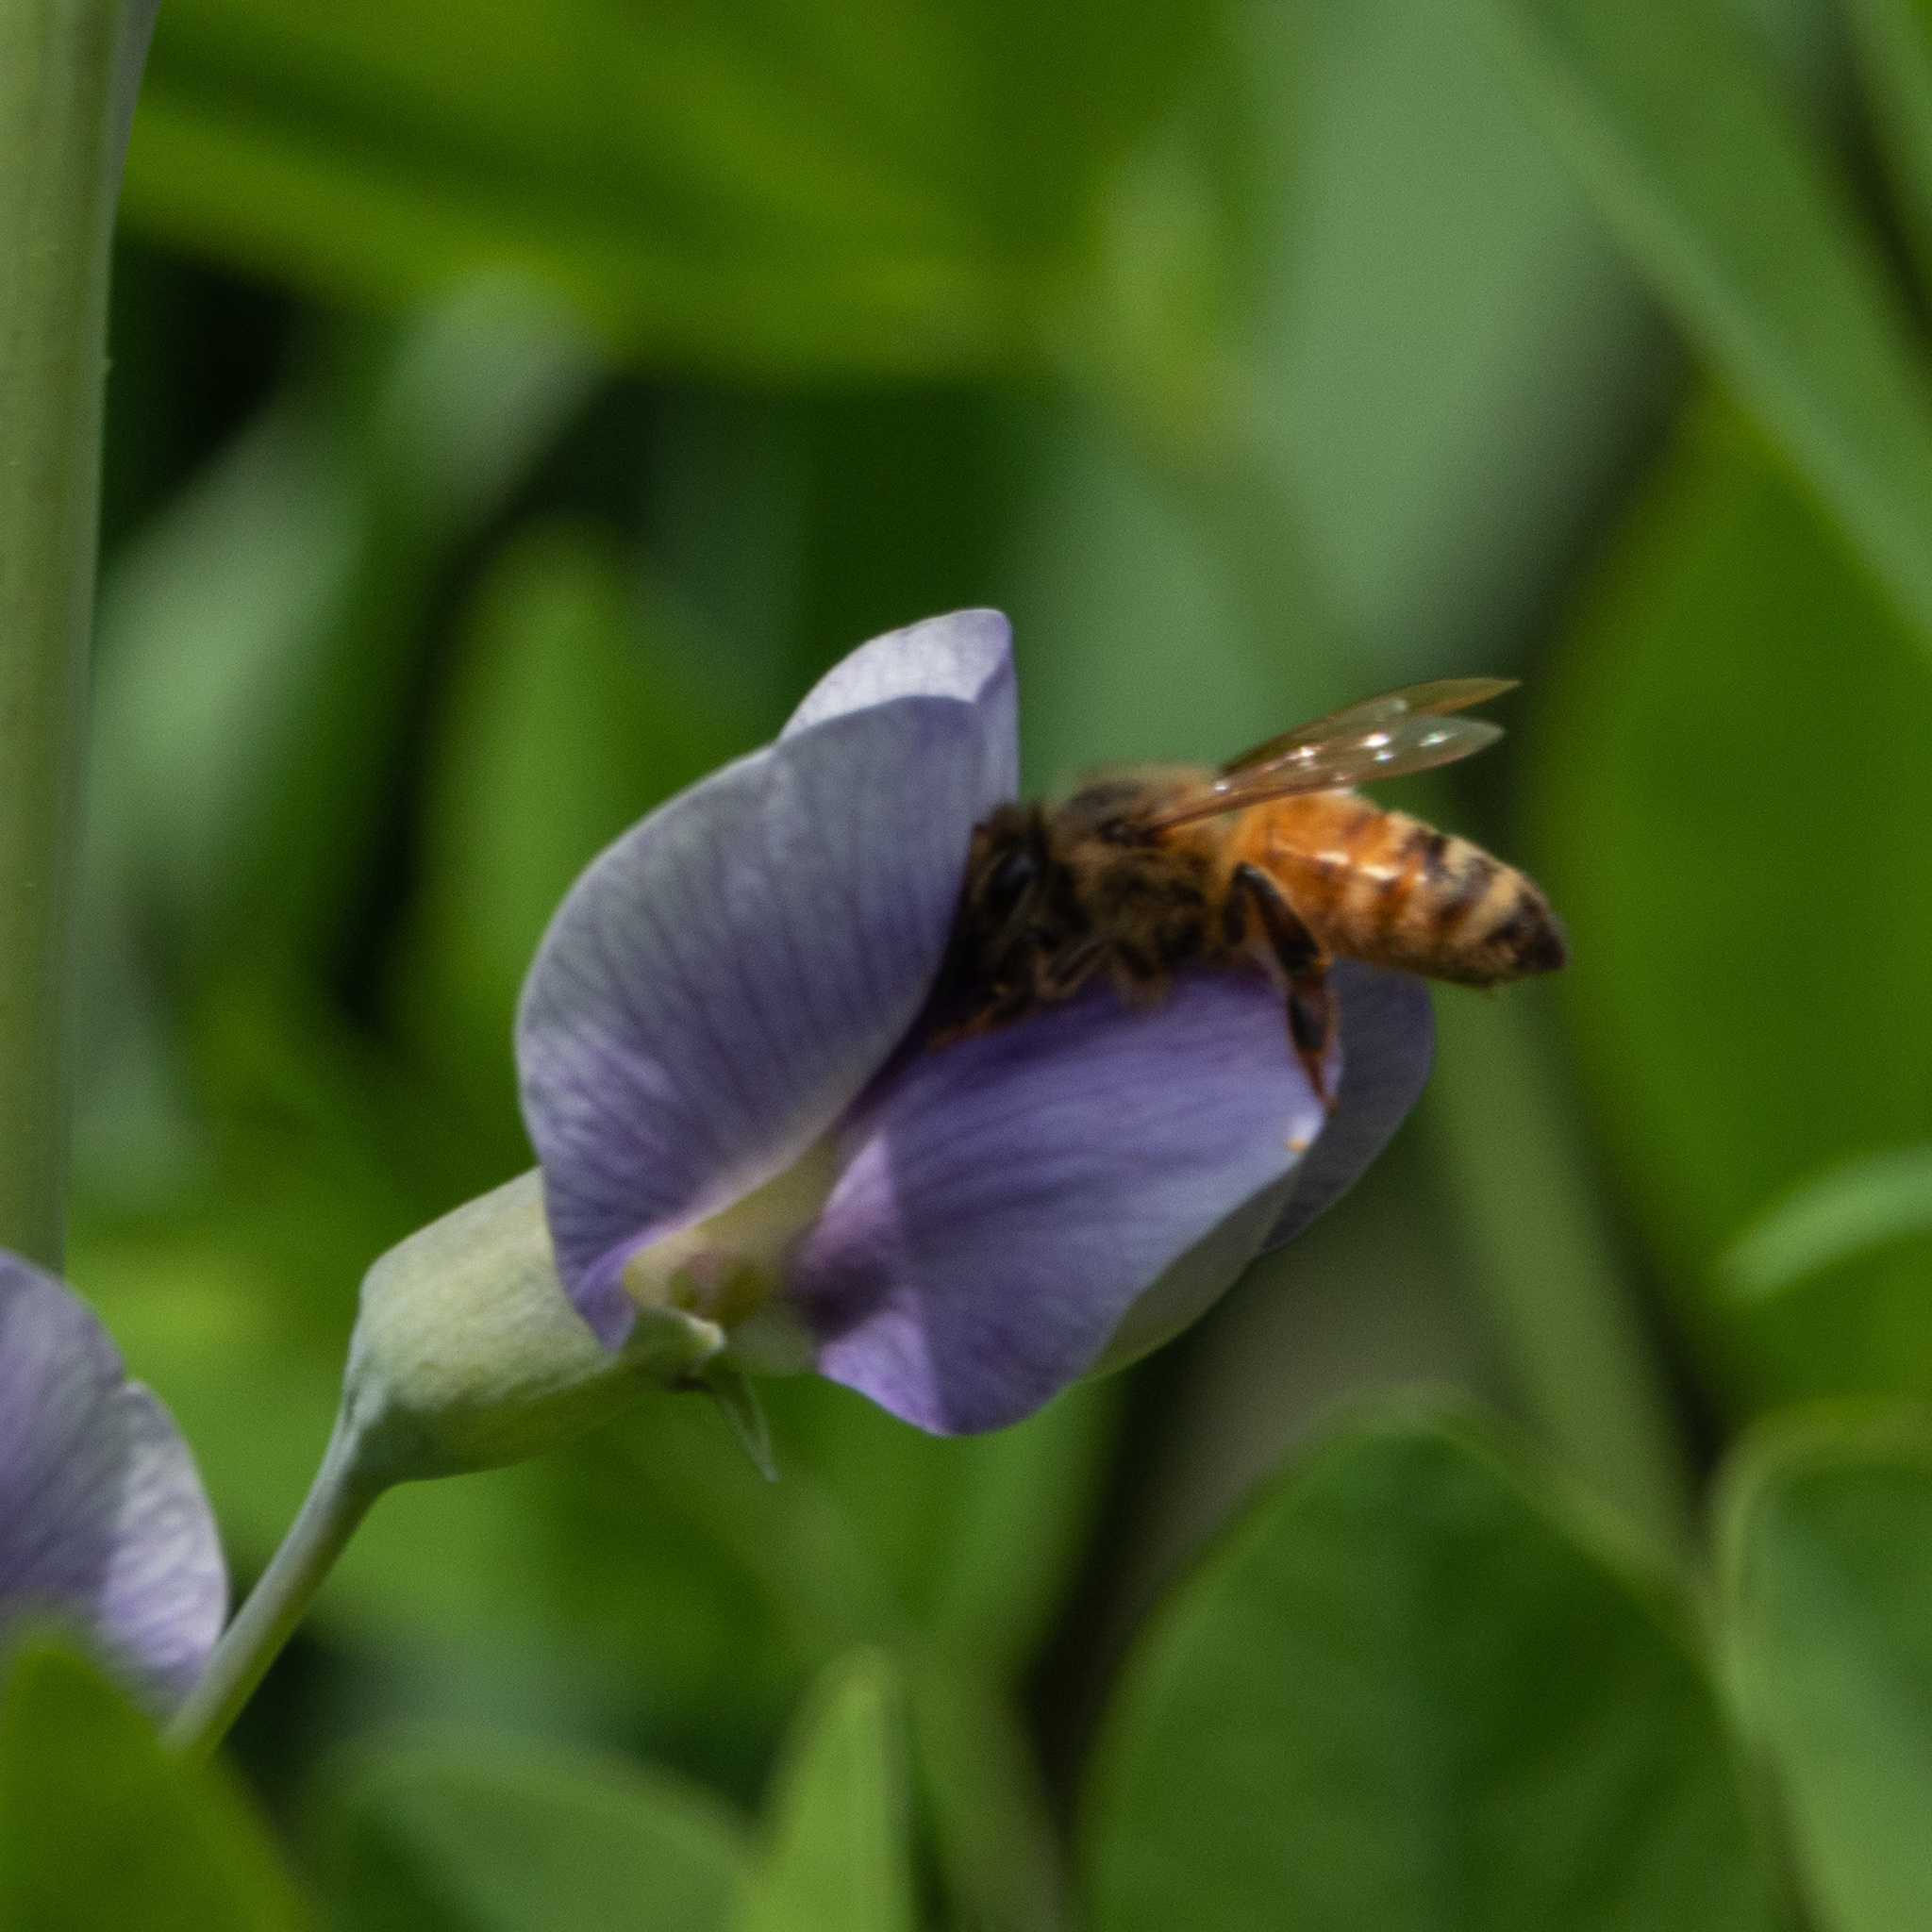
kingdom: Animalia
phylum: Arthropoda
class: Insecta
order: Hymenoptera
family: Apidae
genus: Apis
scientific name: Apis mellifera
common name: Honey bee
